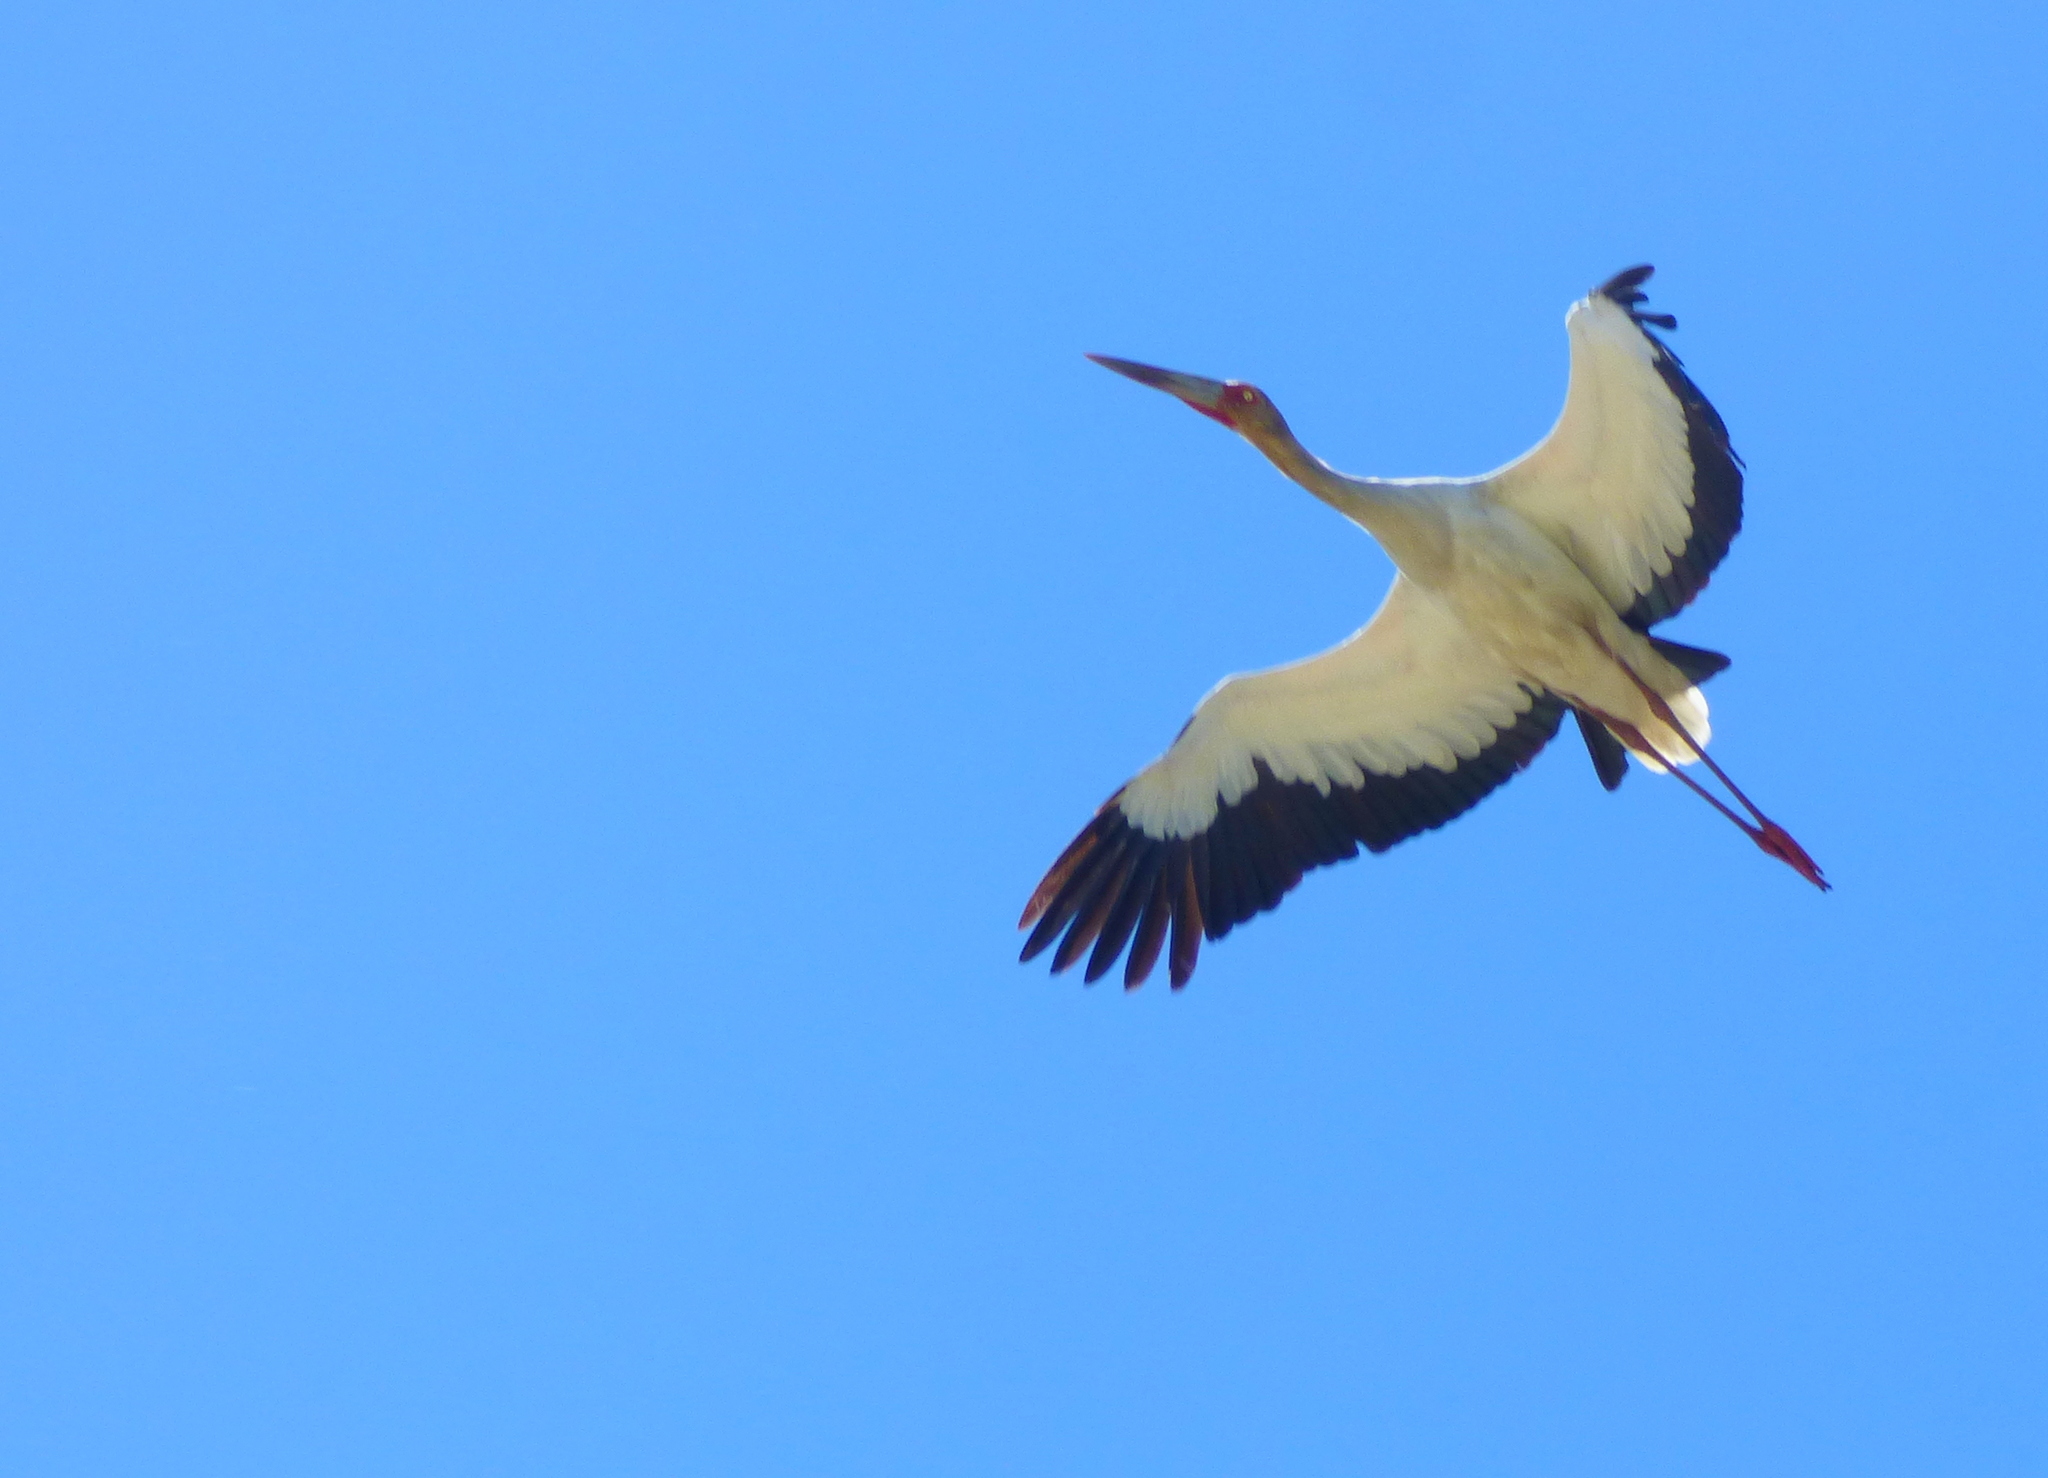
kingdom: Animalia
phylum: Chordata
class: Aves
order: Ciconiiformes
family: Ciconiidae
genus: Ciconia
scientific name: Ciconia maguari
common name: Maguari stork
